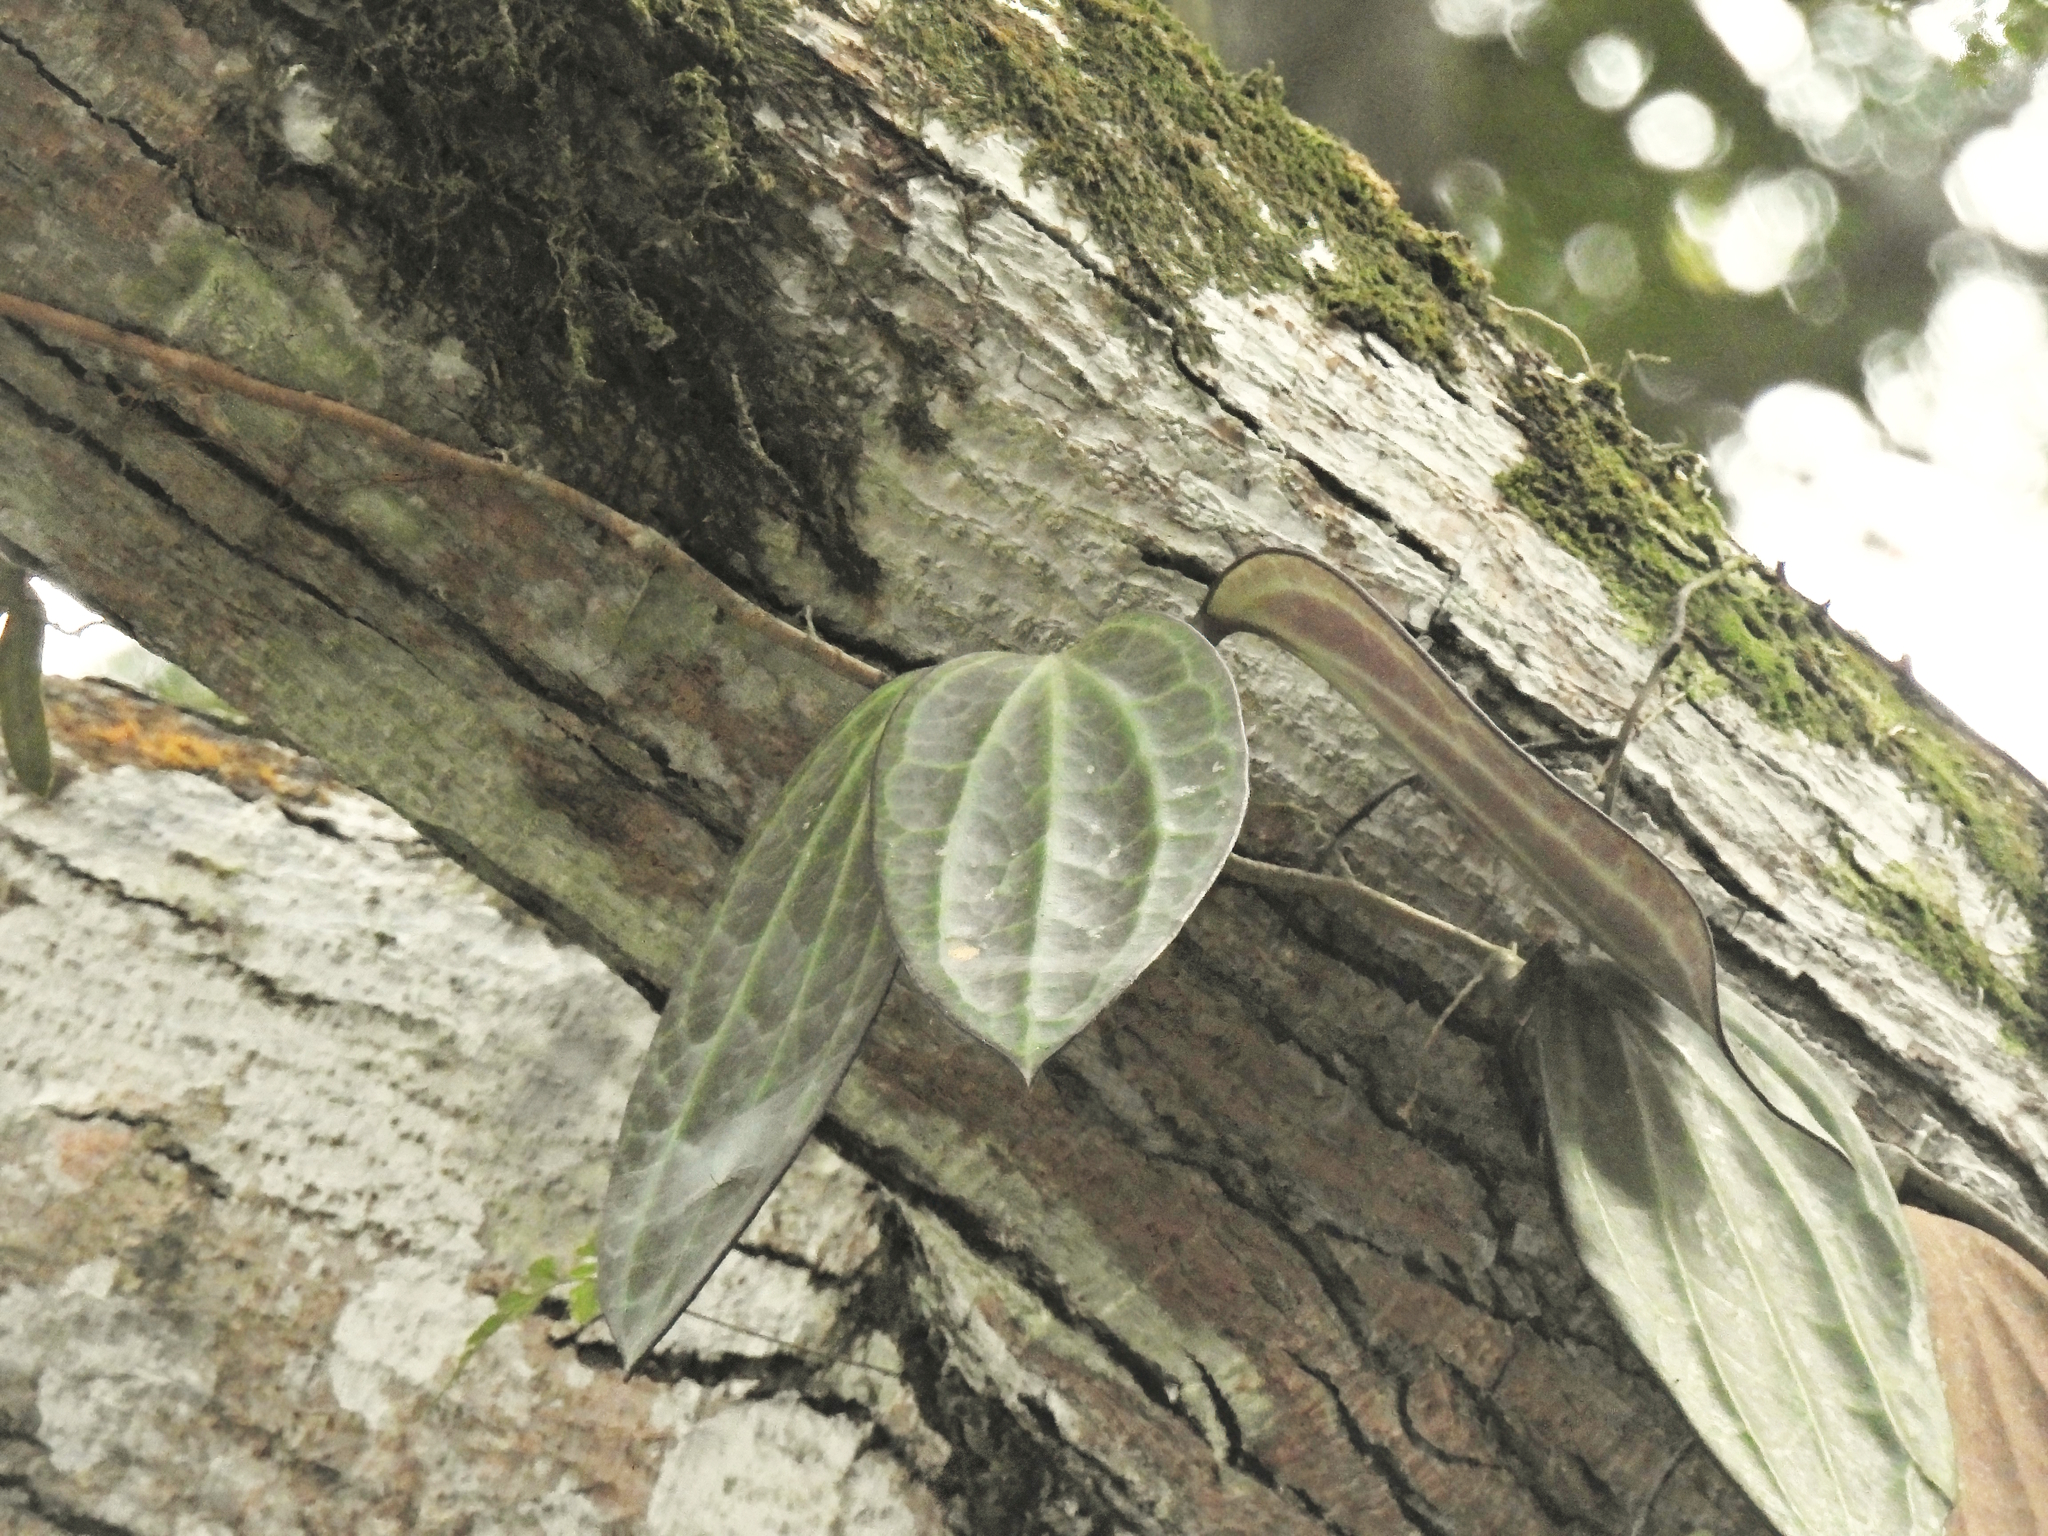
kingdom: Plantae
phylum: Tracheophyta
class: Magnoliopsida
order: Gentianales
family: Apocynaceae
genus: Hoya
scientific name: Hoya latifolia
